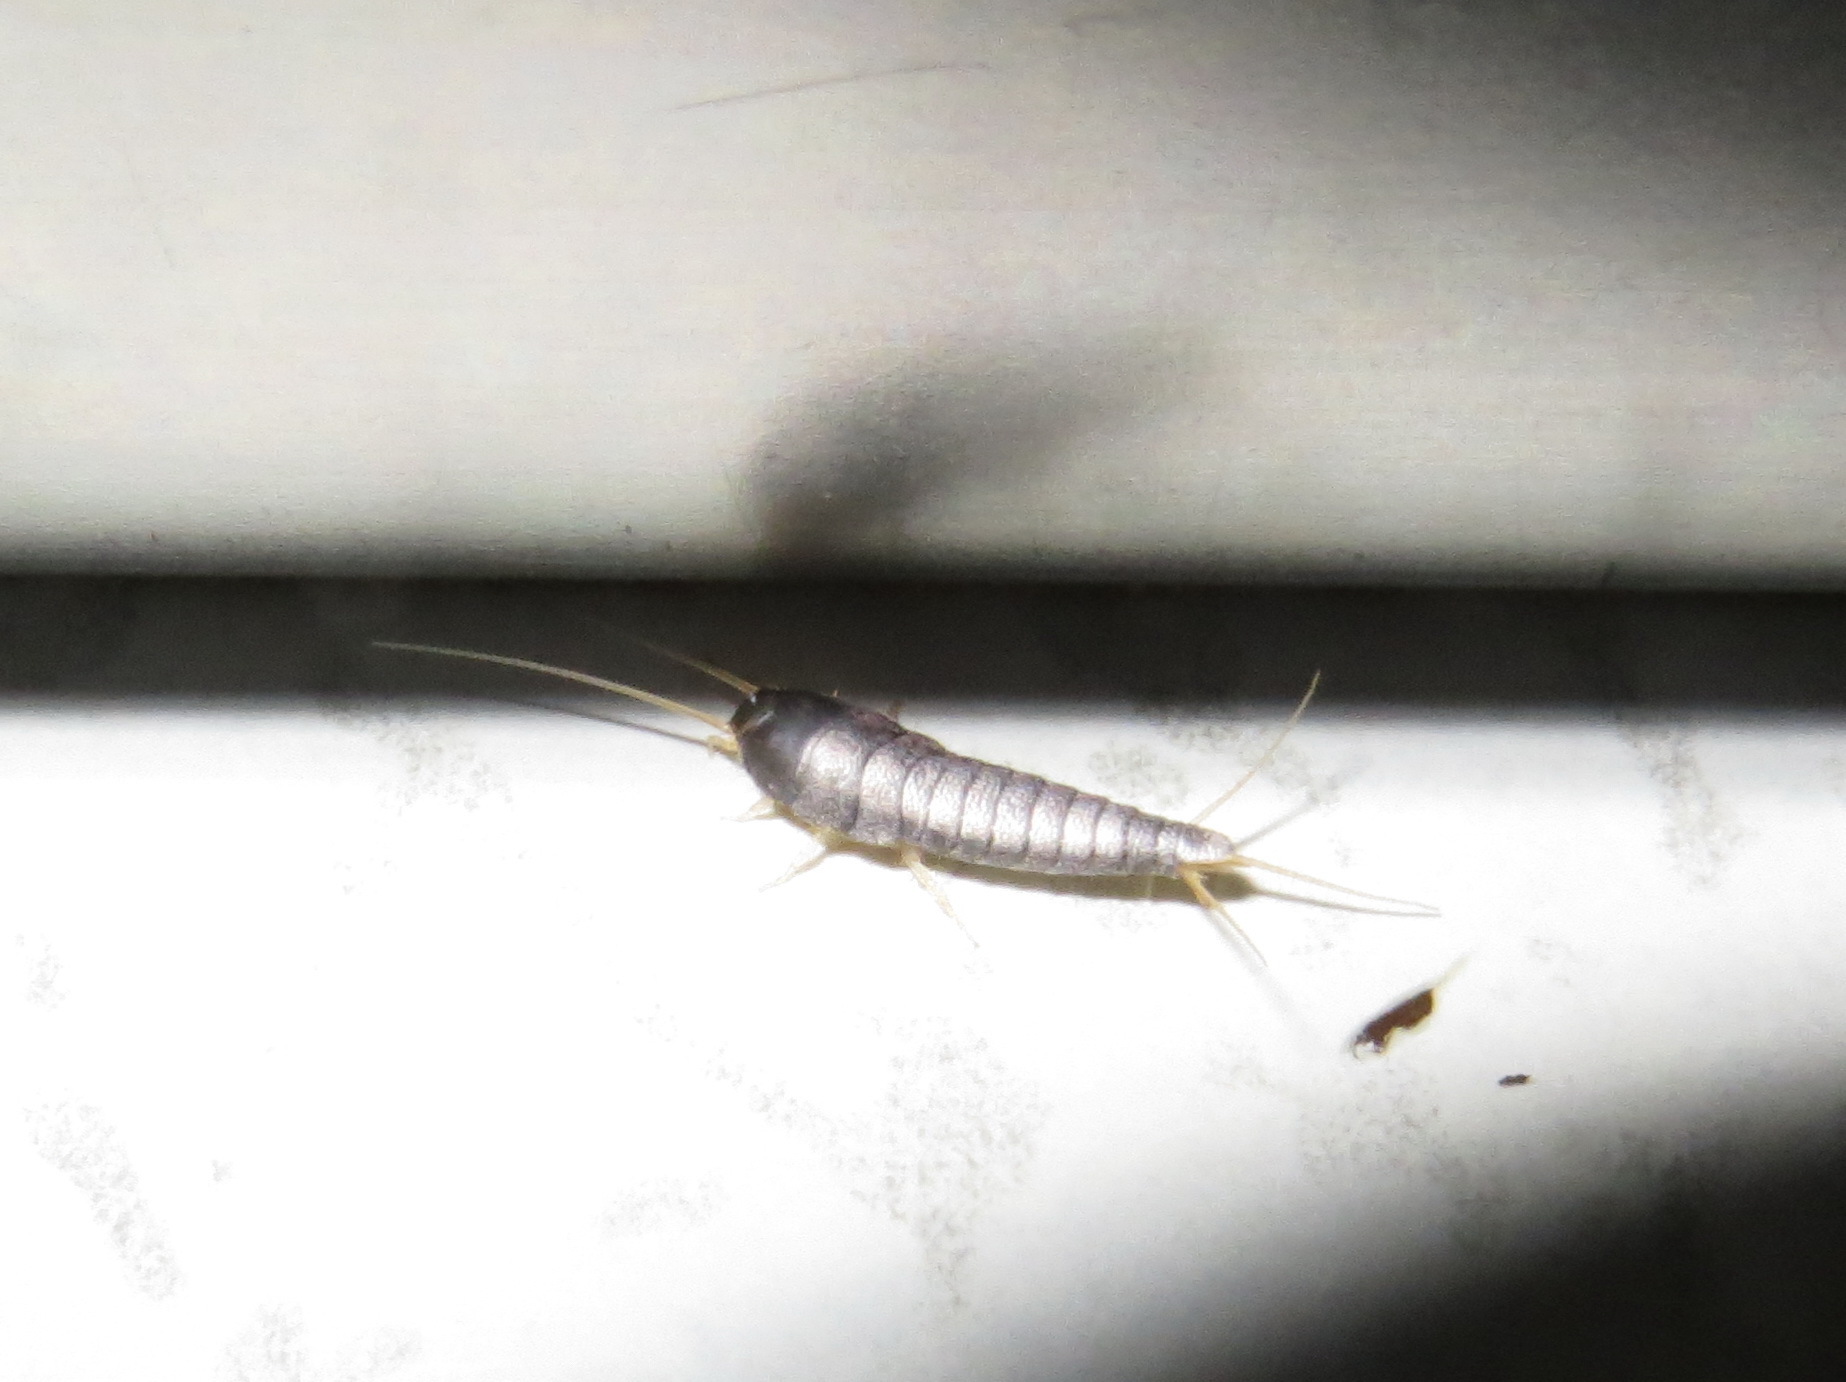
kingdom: Animalia
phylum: Arthropoda
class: Insecta
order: Zygentoma
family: Lepismatidae
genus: Lepisma
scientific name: Lepisma saccharinum
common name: Silverfish
